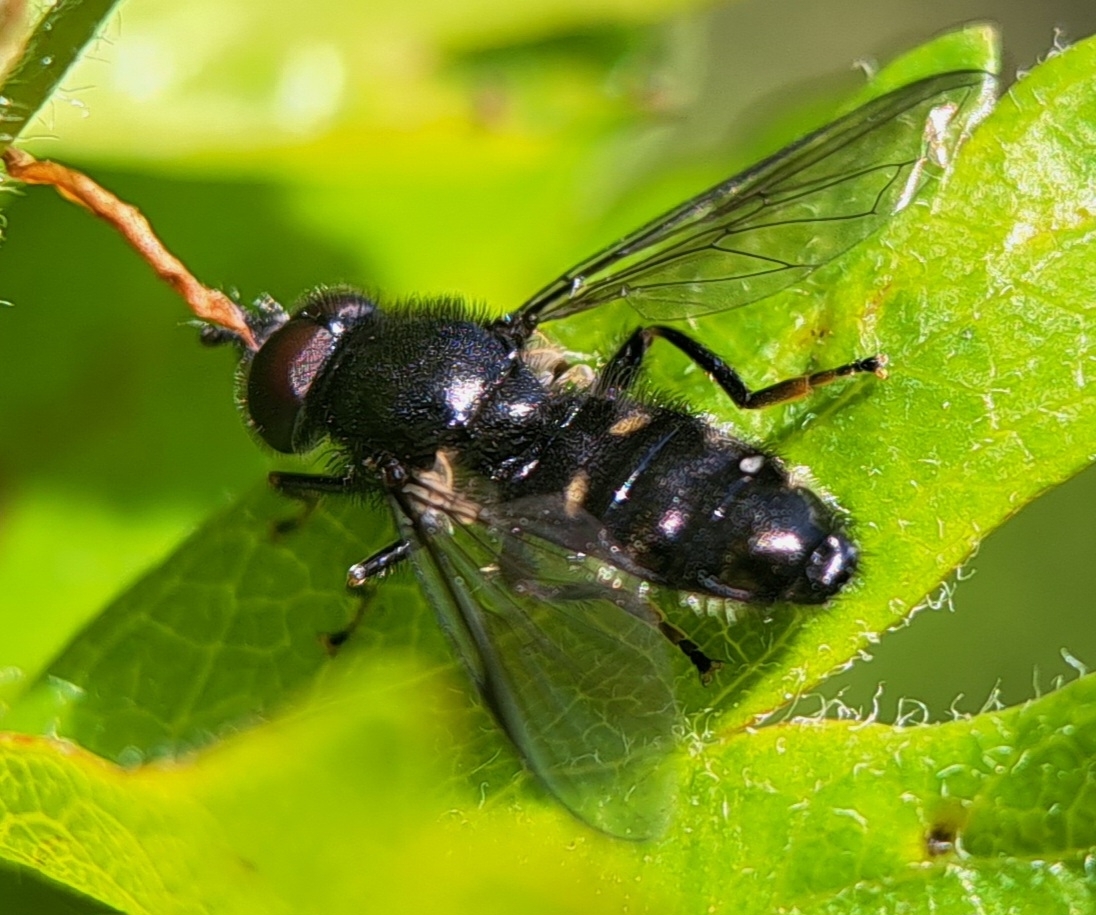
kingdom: Animalia
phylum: Arthropoda
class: Insecta
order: Diptera
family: Syrphidae
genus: Pipiza
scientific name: Pipiza
